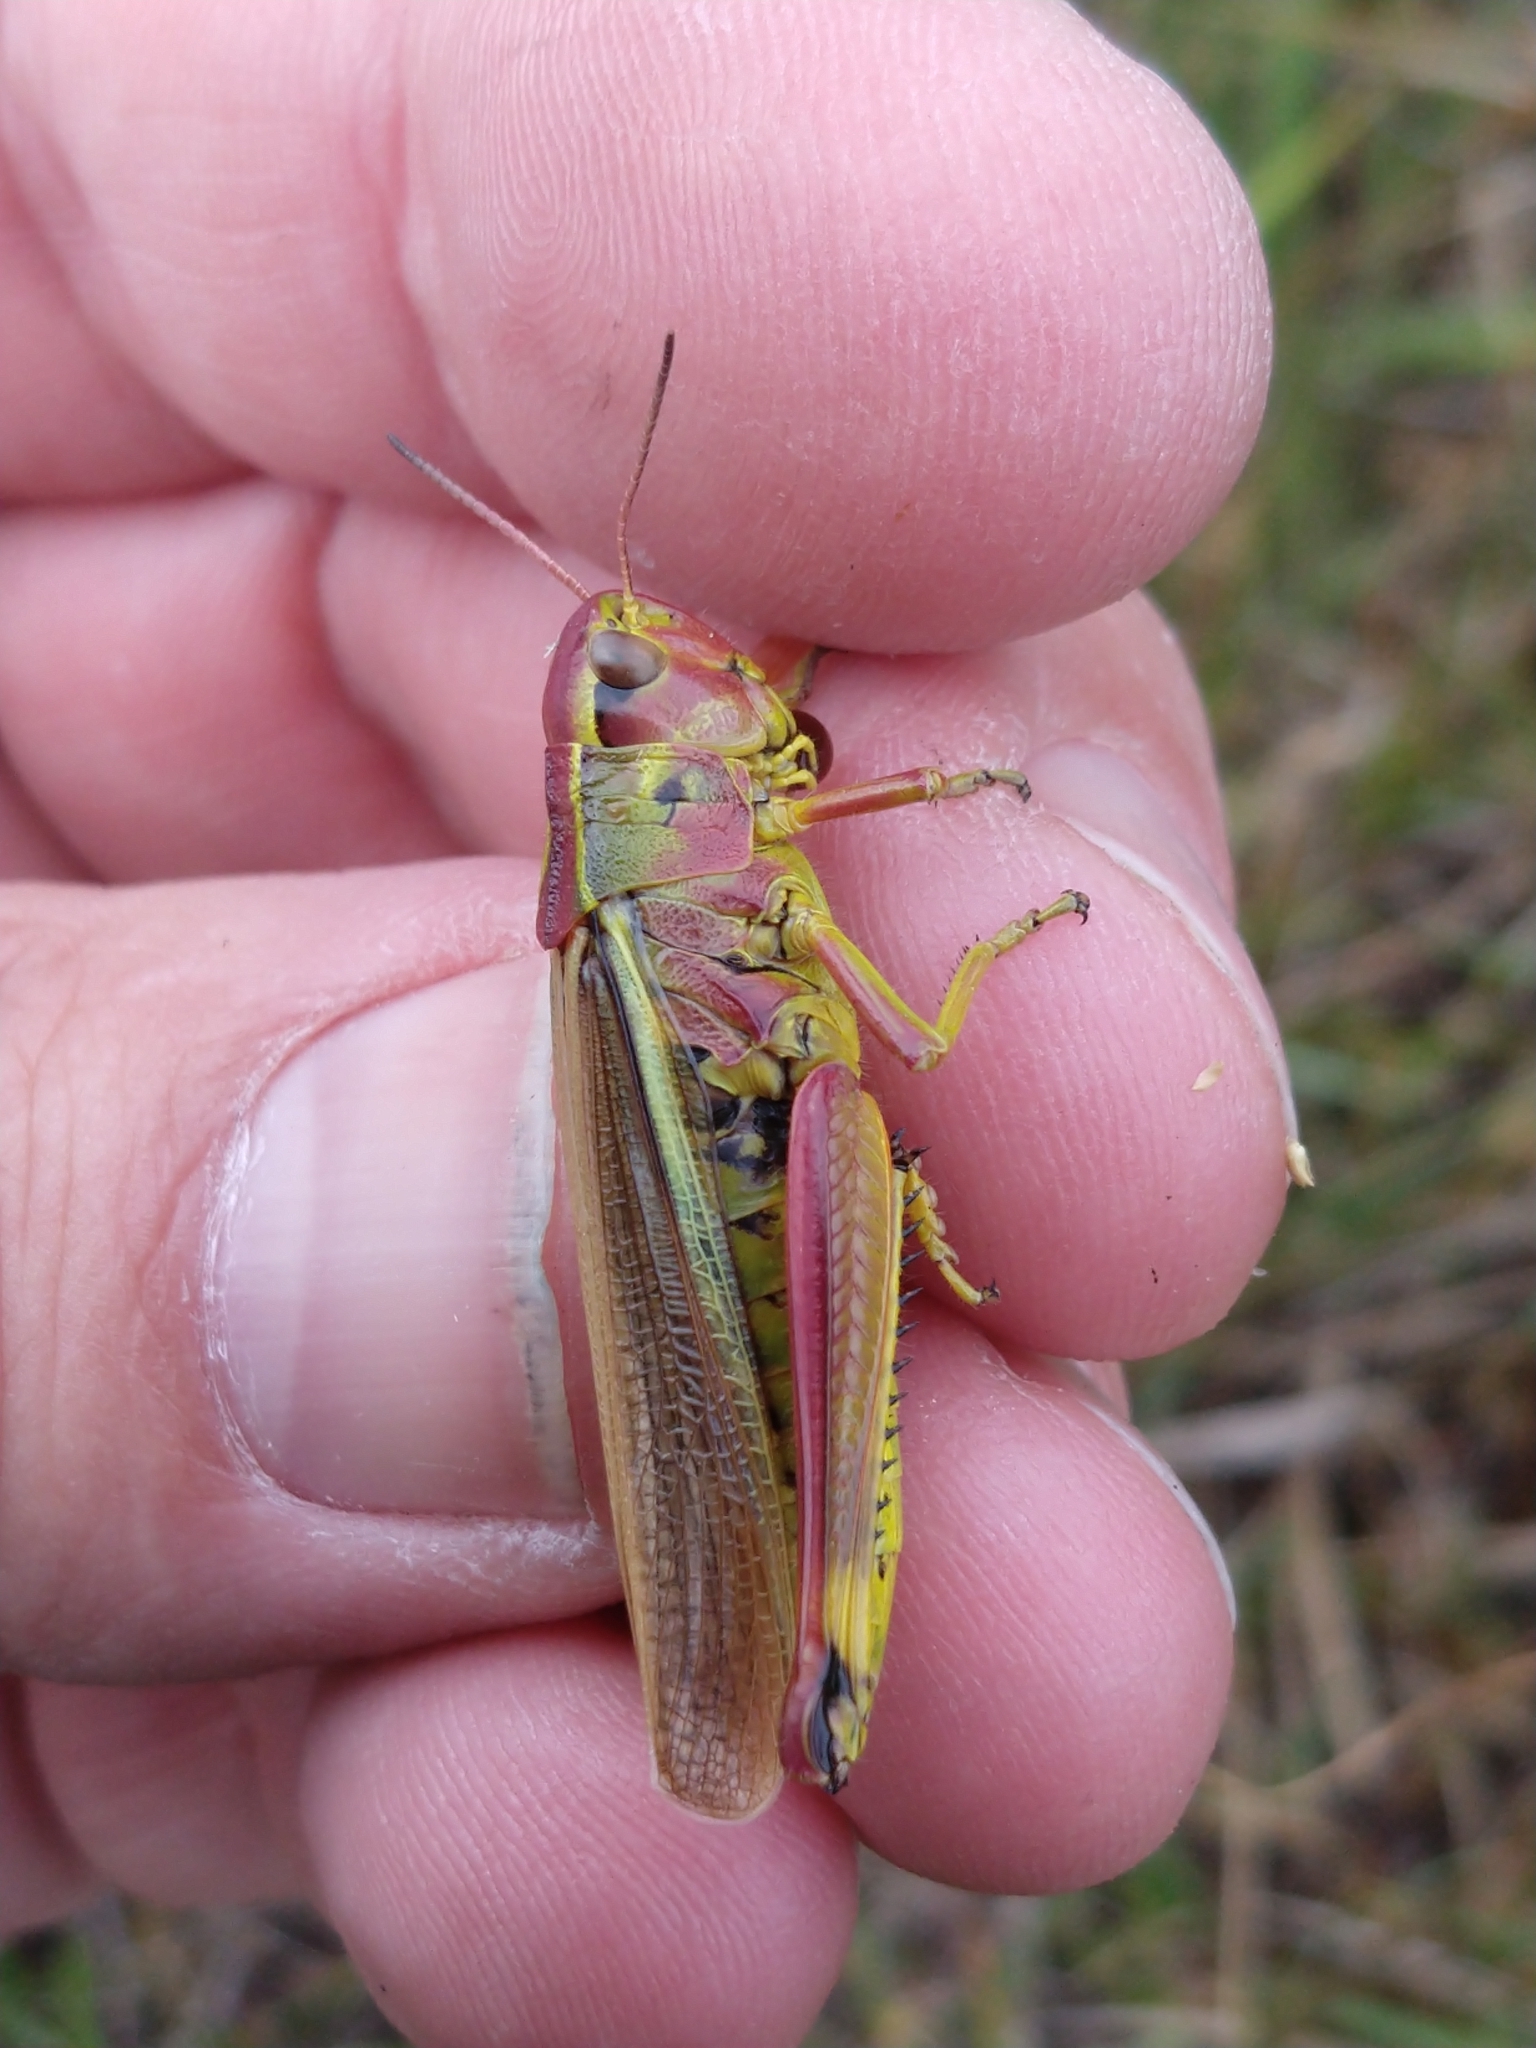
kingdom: Animalia
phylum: Arthropoda
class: Insecta
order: Orthoptera
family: Acrididae
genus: Stethophyma
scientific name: Stethophyma grossum
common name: Large marsh grasshopper
